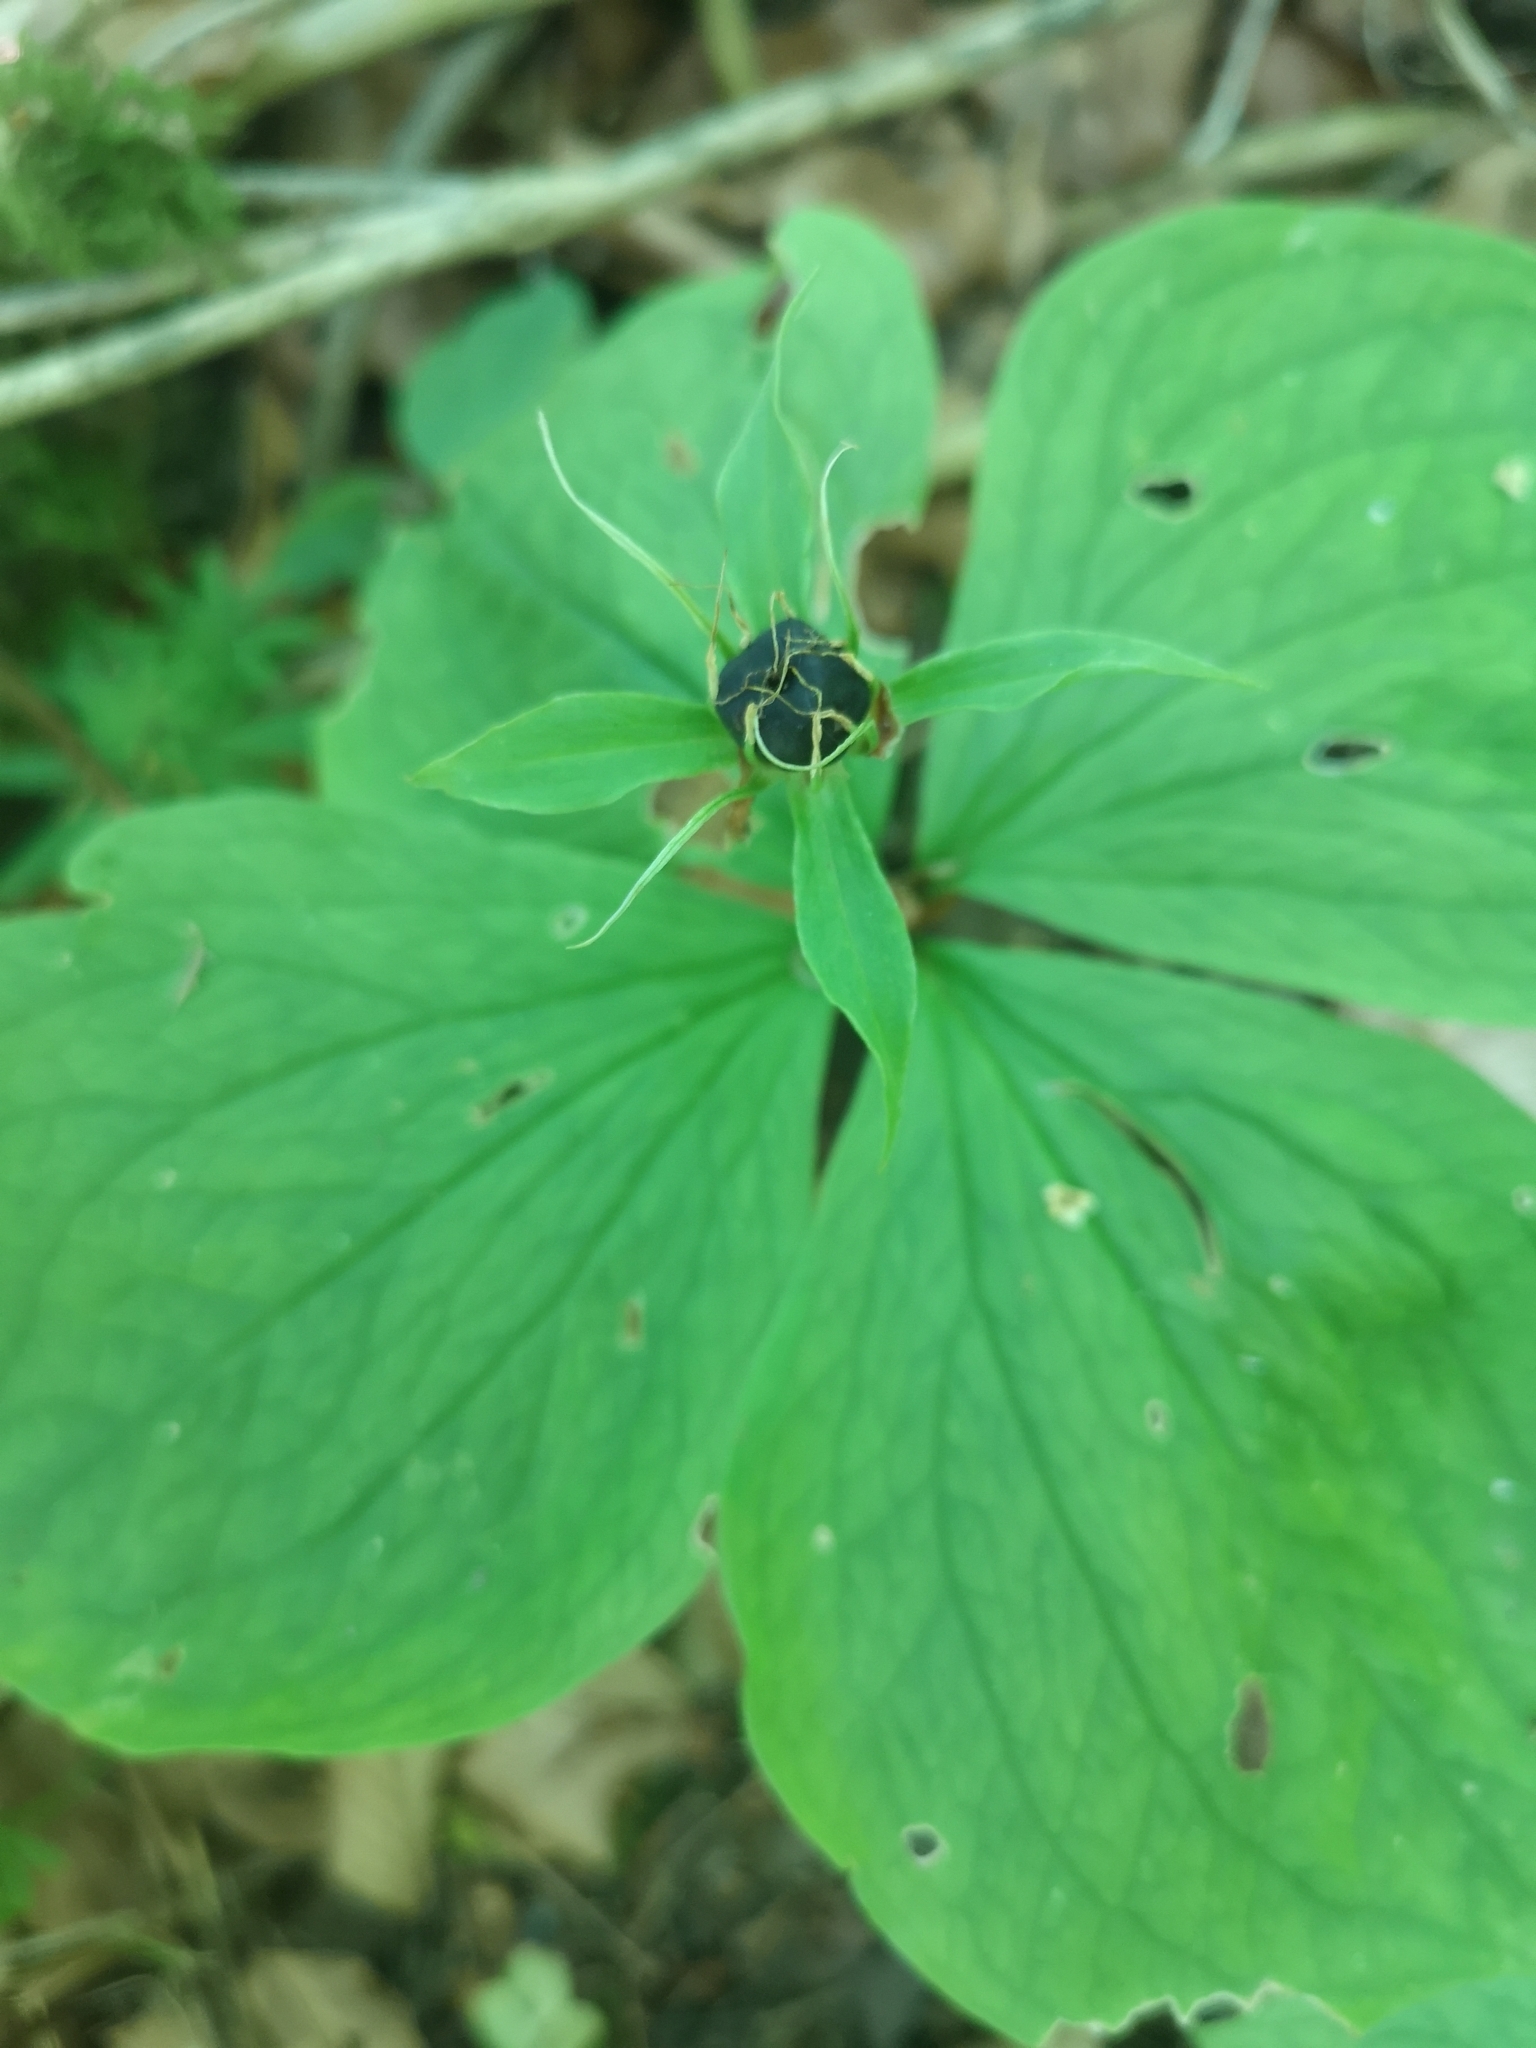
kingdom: Plantae
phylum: Tracheophyta
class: Liliopsida
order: Liliales
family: Melanthiaceae
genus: Paris
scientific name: Paris quadrifolia
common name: Herb-paris
